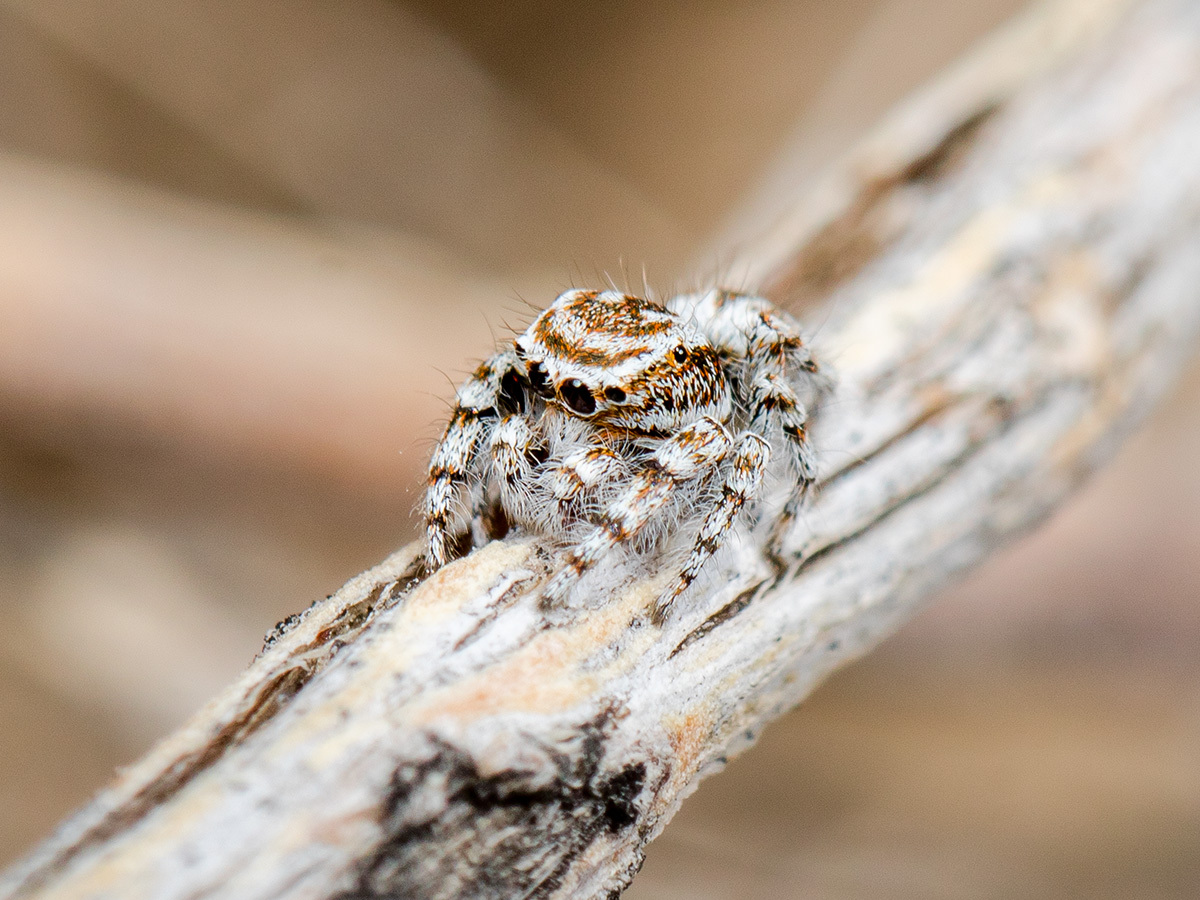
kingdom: Animalia
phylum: Arthropoda
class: Arachnida
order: Araneae
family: Salticidae
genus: Pseudomogrus
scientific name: Pseudomogrus dalaensis
